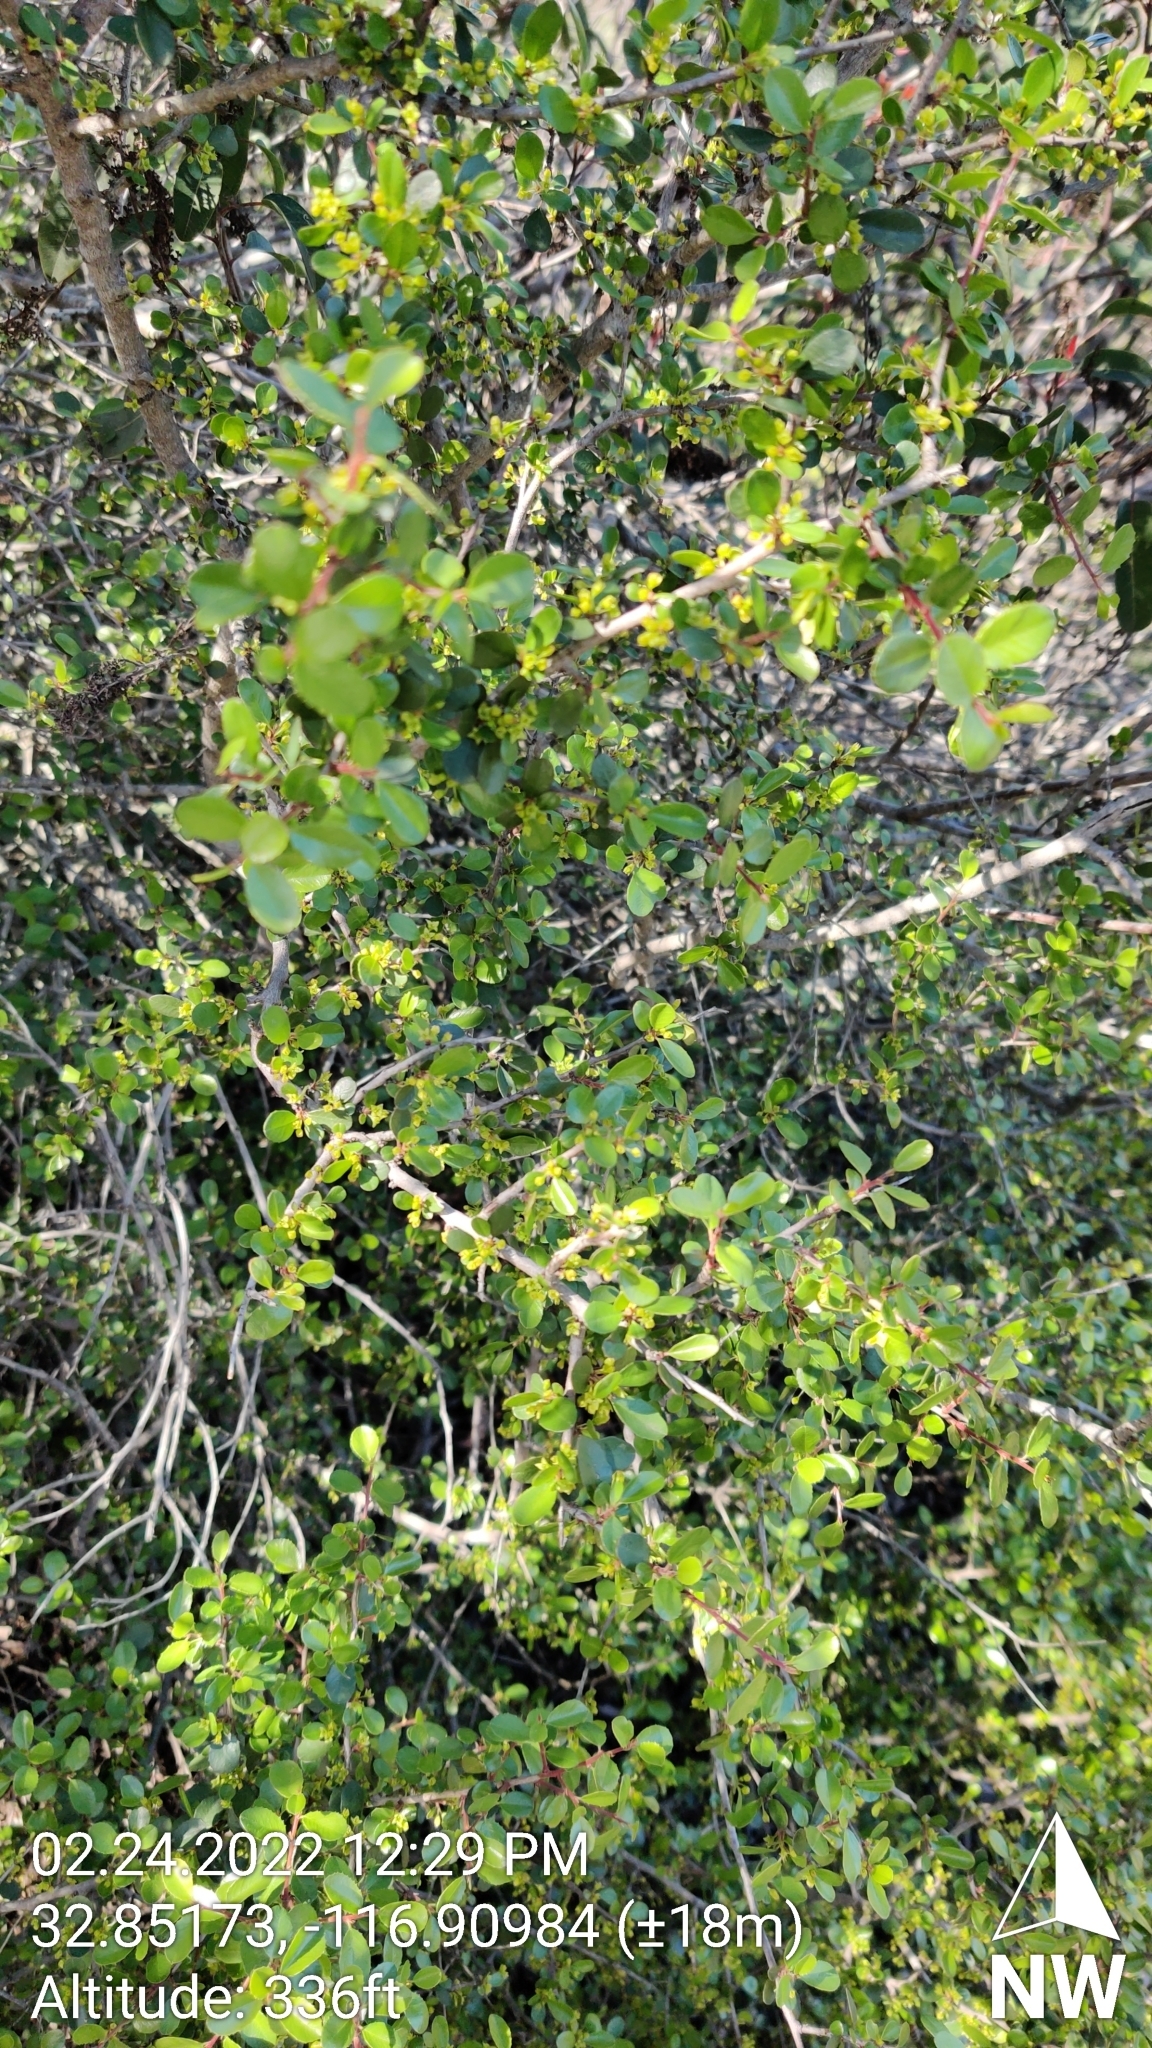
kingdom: Plantae
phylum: Tracheophyta
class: Magnoliopsida
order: Rosales
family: Rhamnaceae
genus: Endotropis
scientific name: Endotropis crocea
